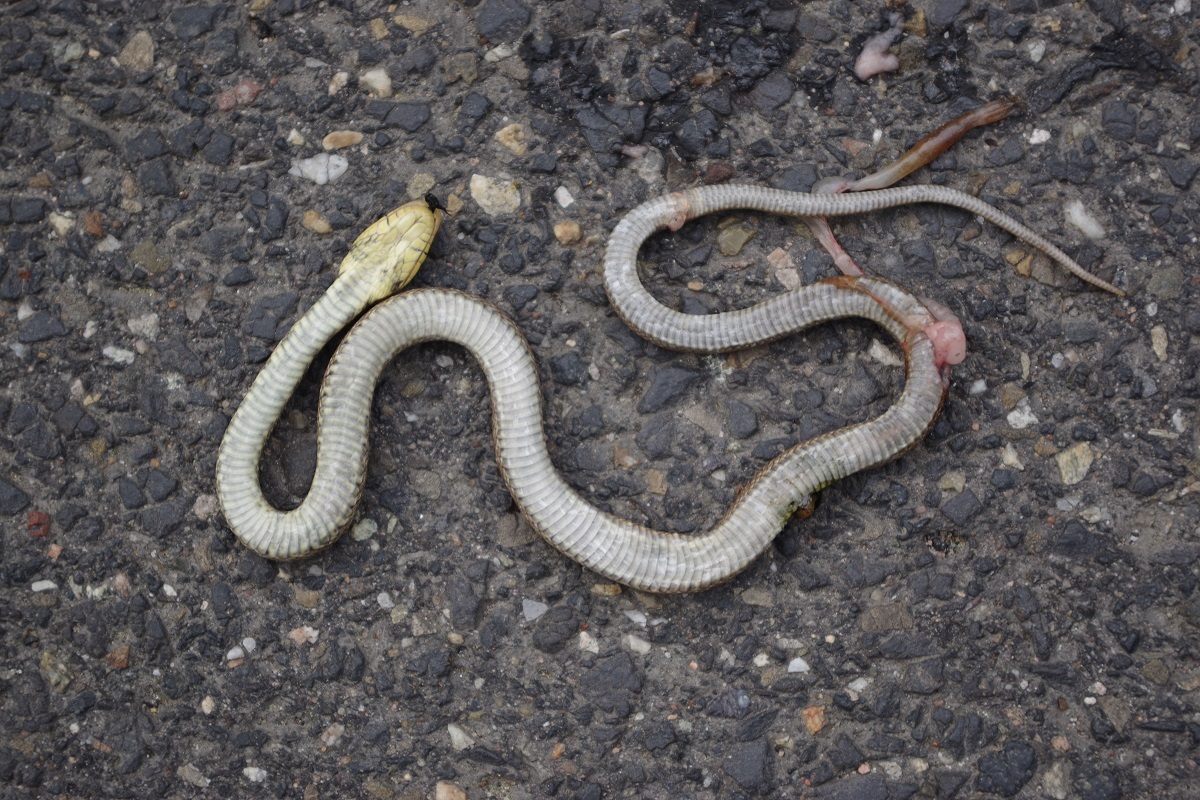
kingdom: Animalia
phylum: Chordata
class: Squamata
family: Colubridae
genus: Zamenis
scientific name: Zamenis longissimus
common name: Aesculapean snake
